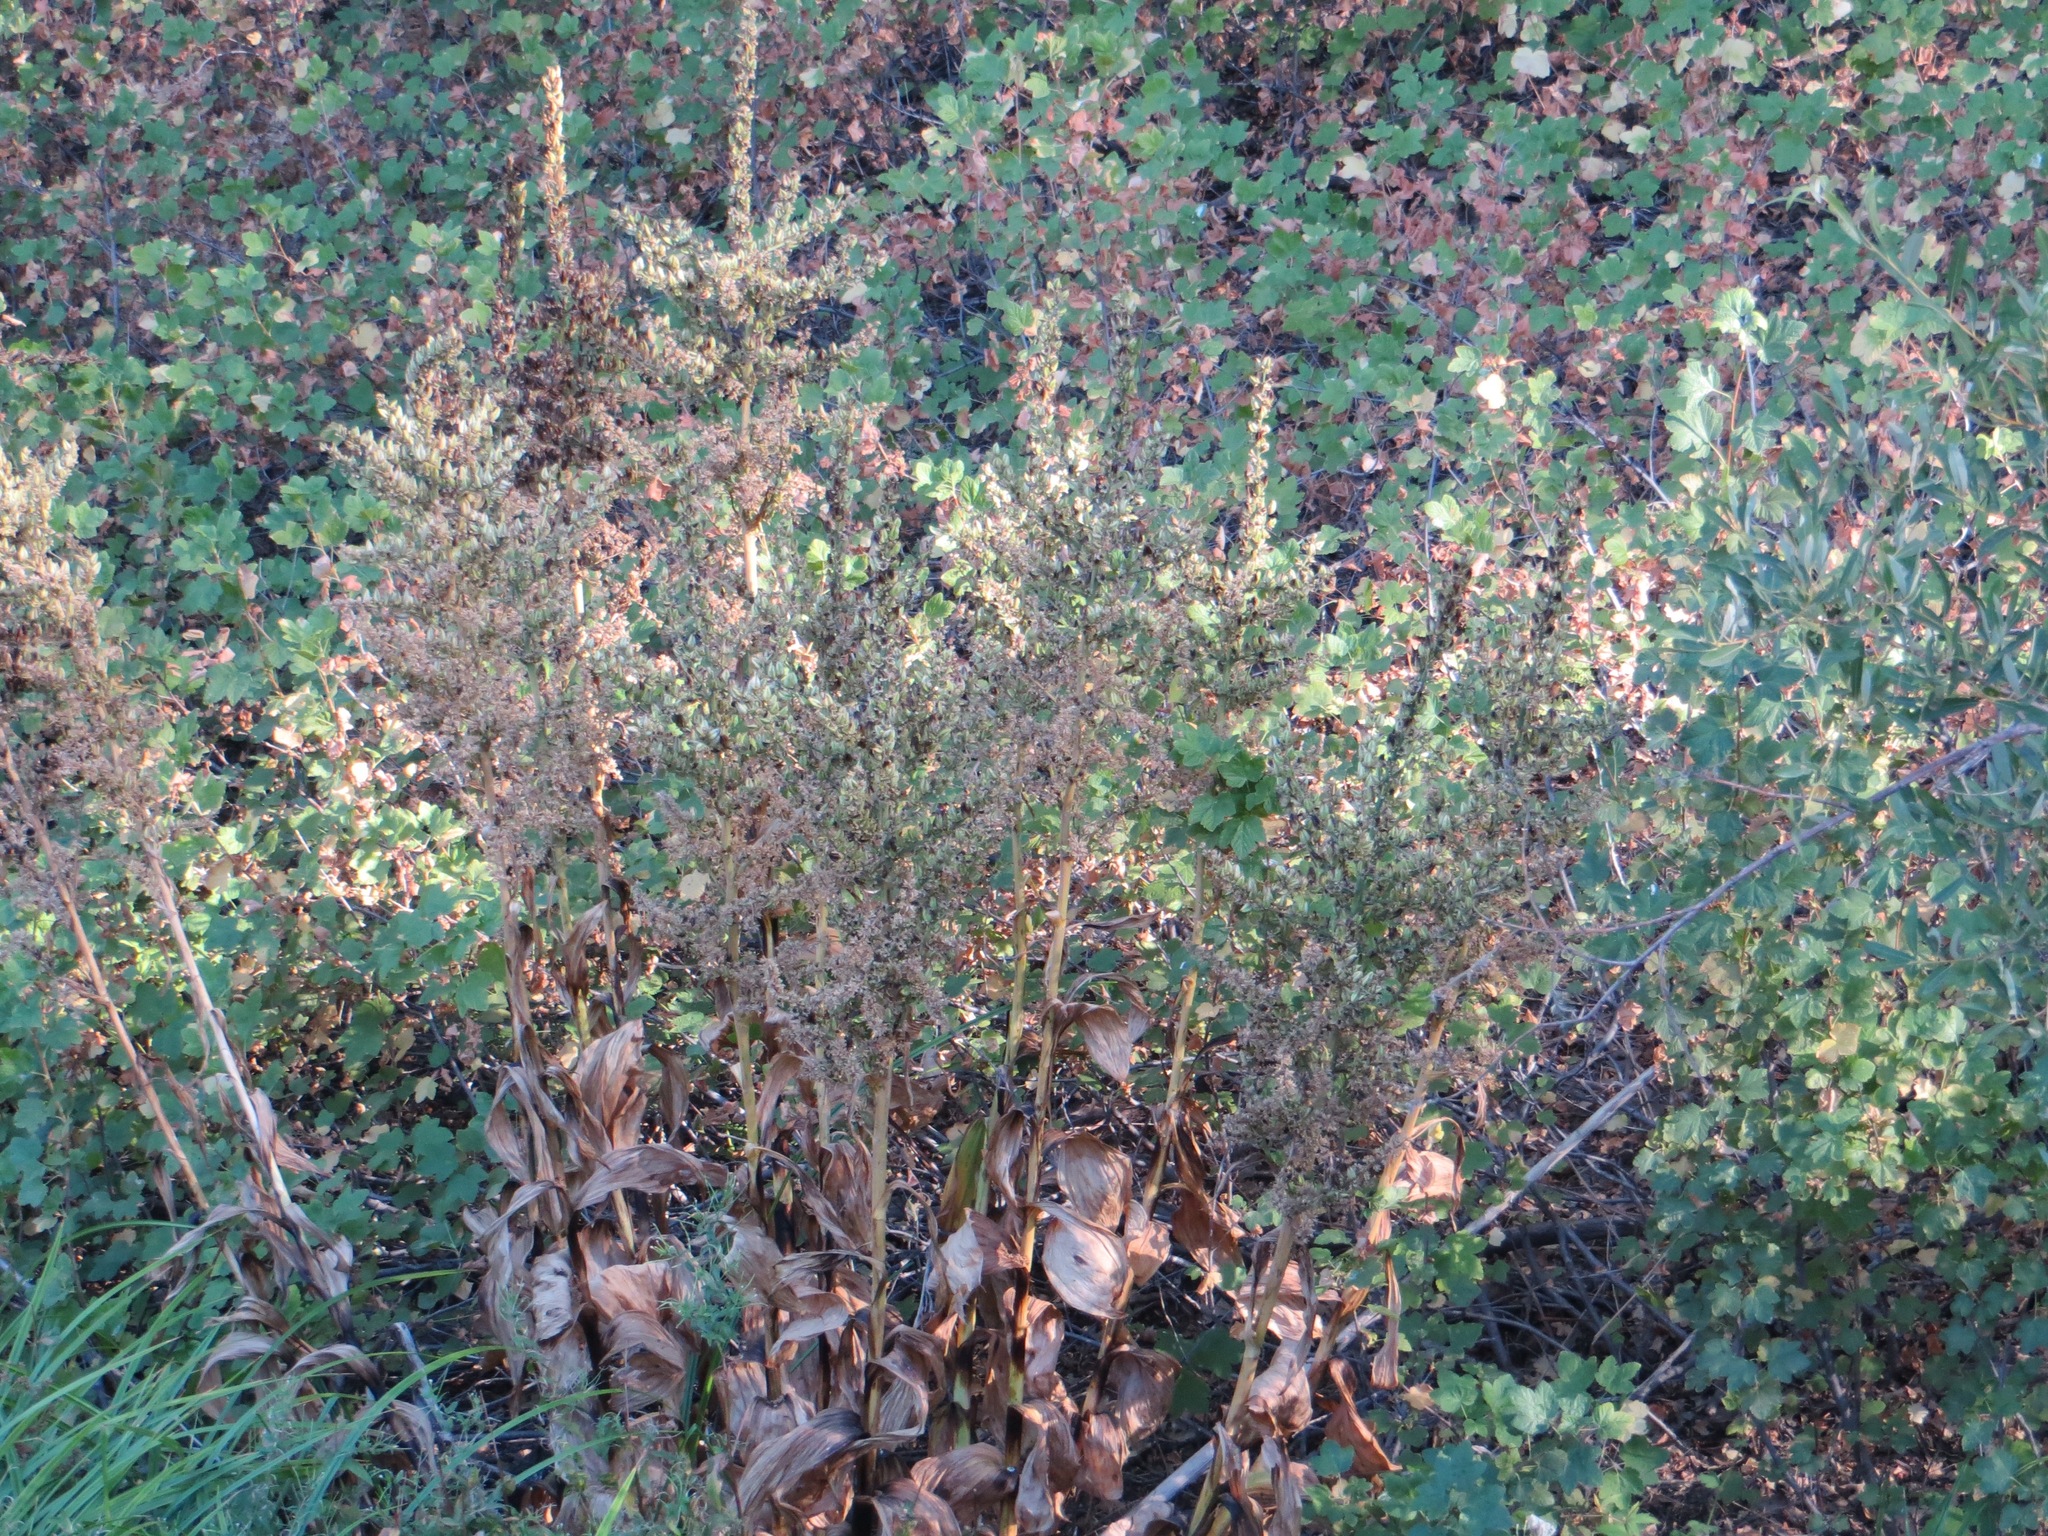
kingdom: Plantae
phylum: Tracheophyta
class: Liliopsida
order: Liliales
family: Melanthiaceae
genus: Veratrum
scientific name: Veratrum californicum
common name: California veratrum
